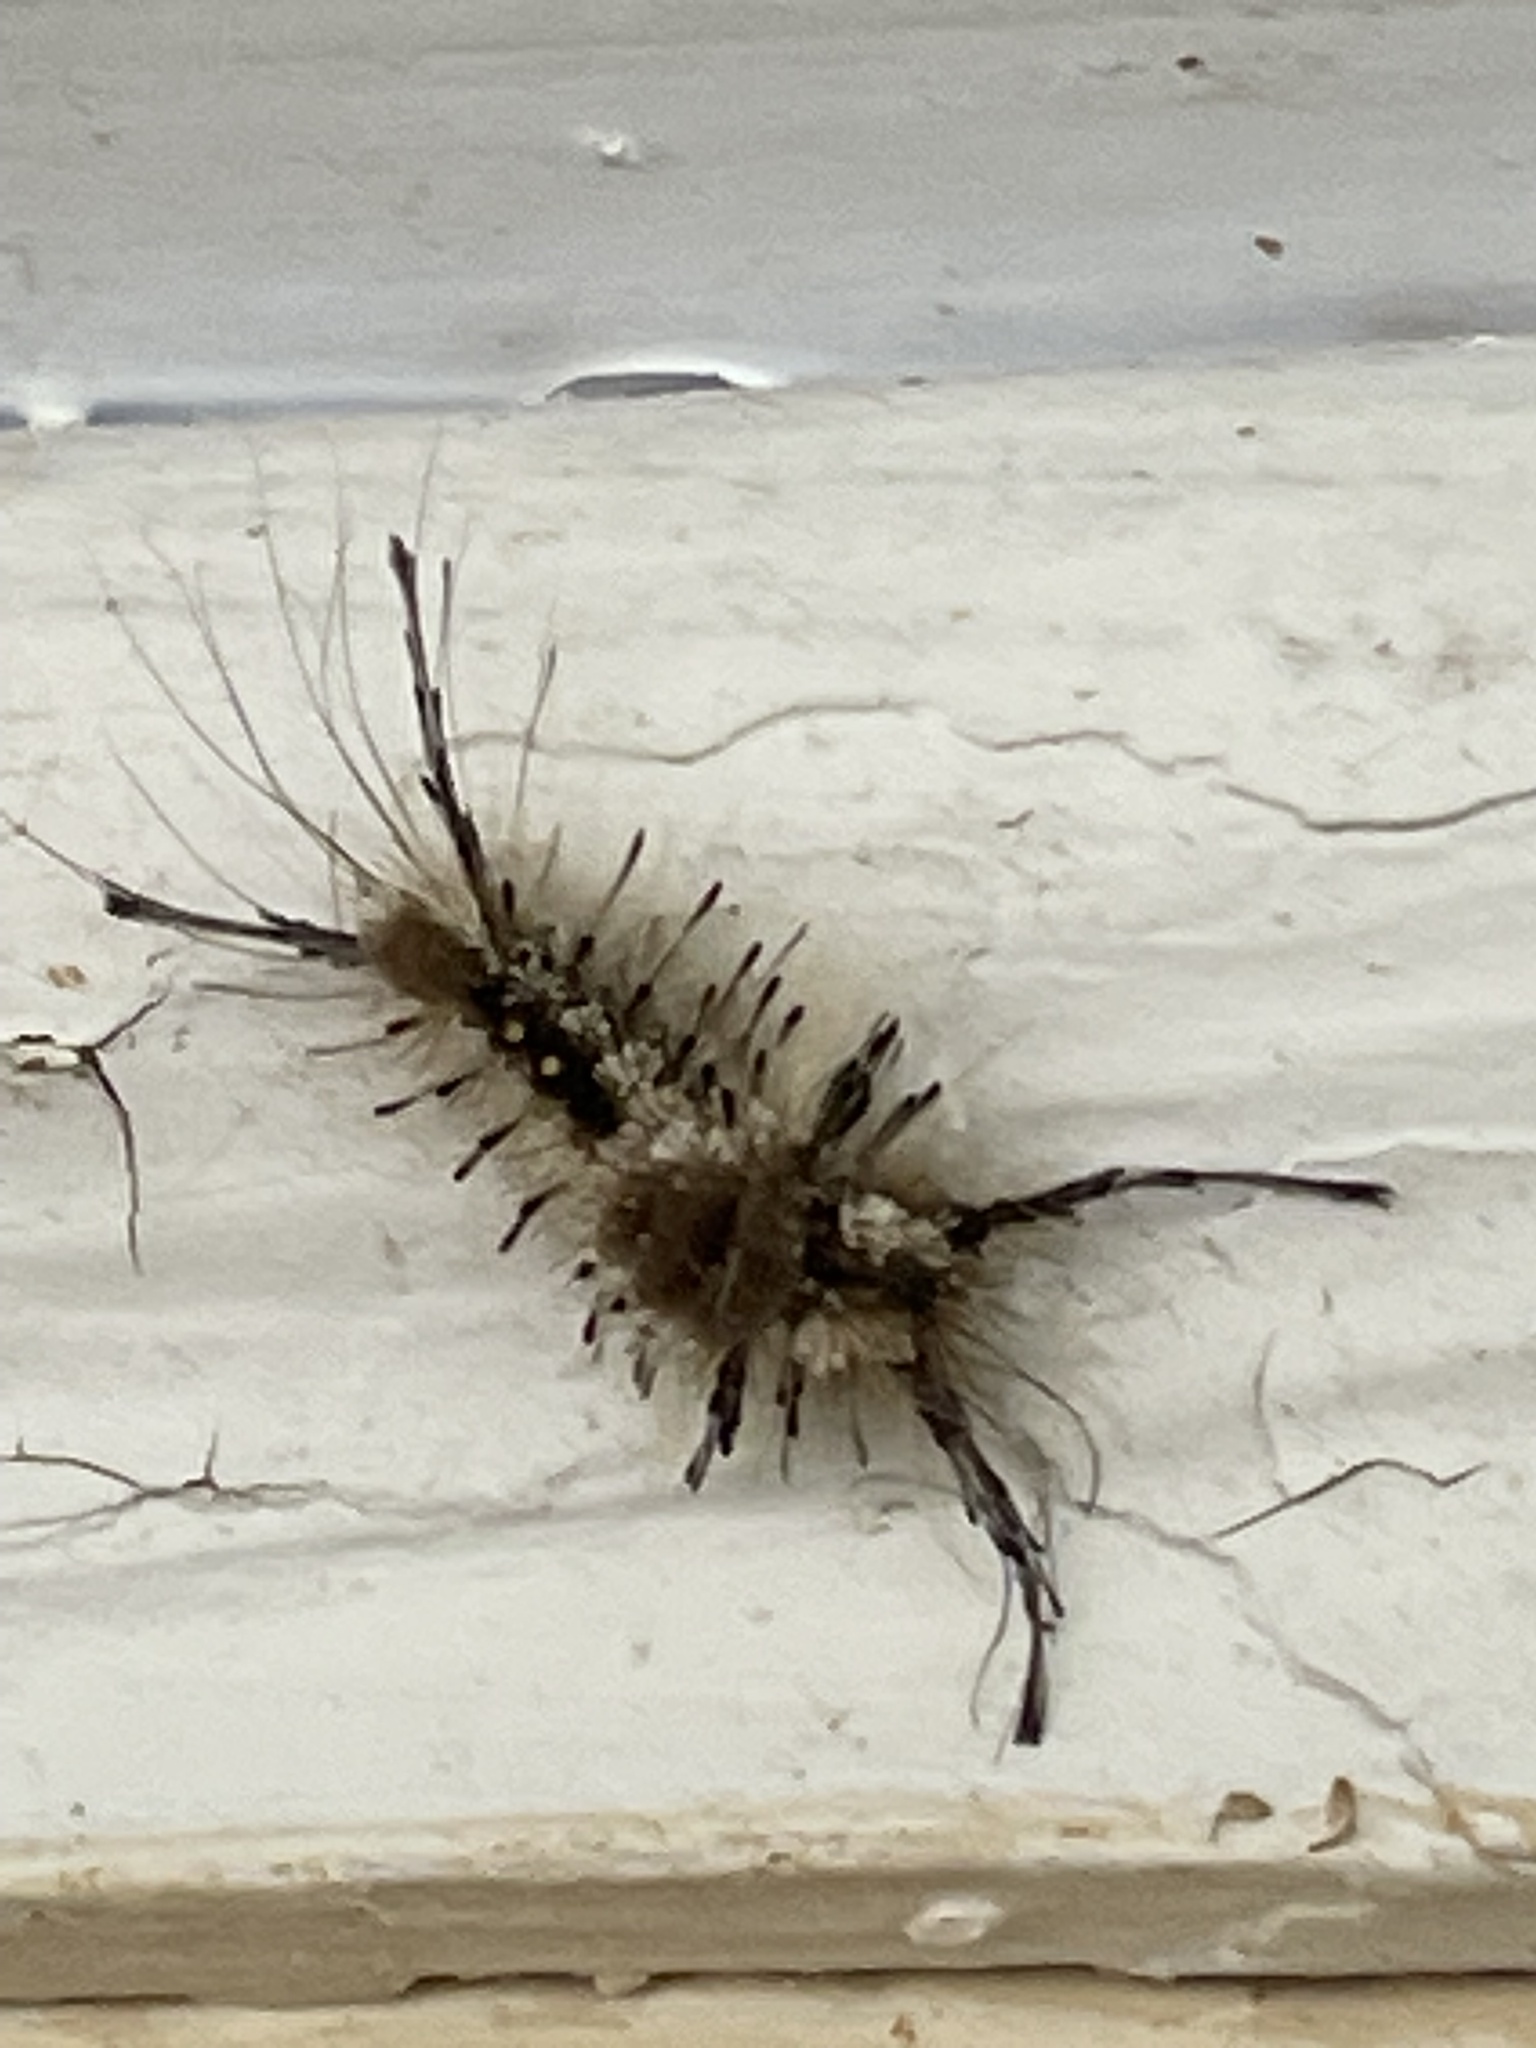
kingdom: Animalia
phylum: Arthropoda
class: Insecta
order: Lepidoptera
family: Erebidae
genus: Dasychira
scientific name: Dasychira meridionalis
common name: Southern tussock moth
